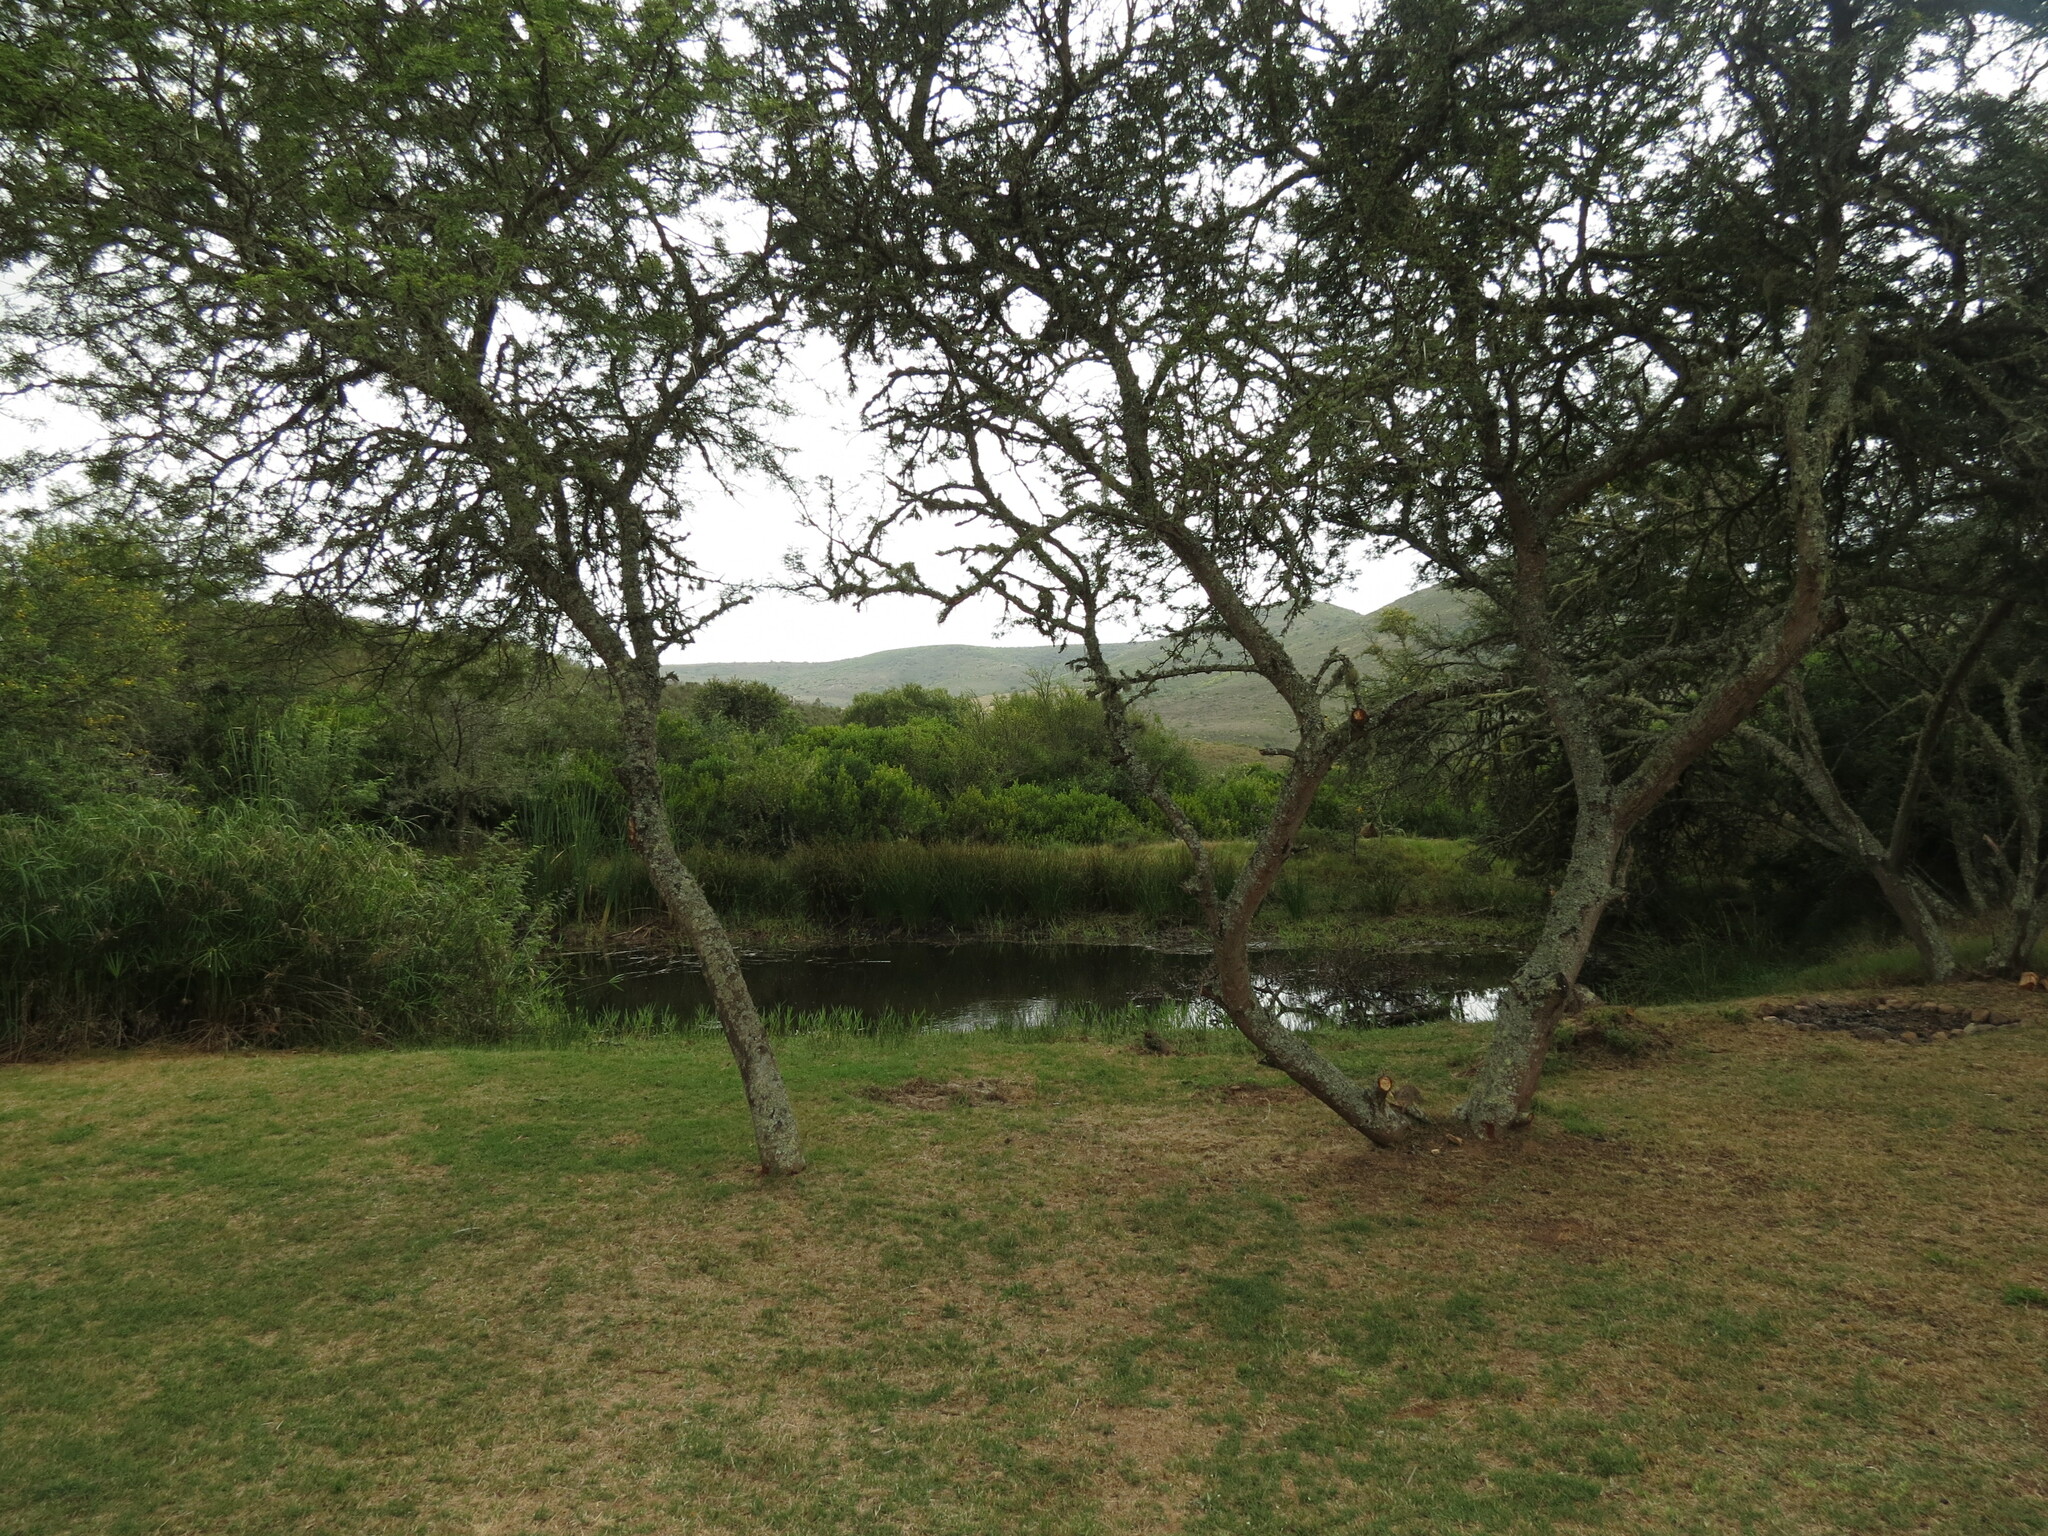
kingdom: Plantae
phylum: Tracheophyta
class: Magnoliopsida
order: Fabales
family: Fabaceae
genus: Vachellia
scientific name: Vachellia karroo
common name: Sweet thorn
